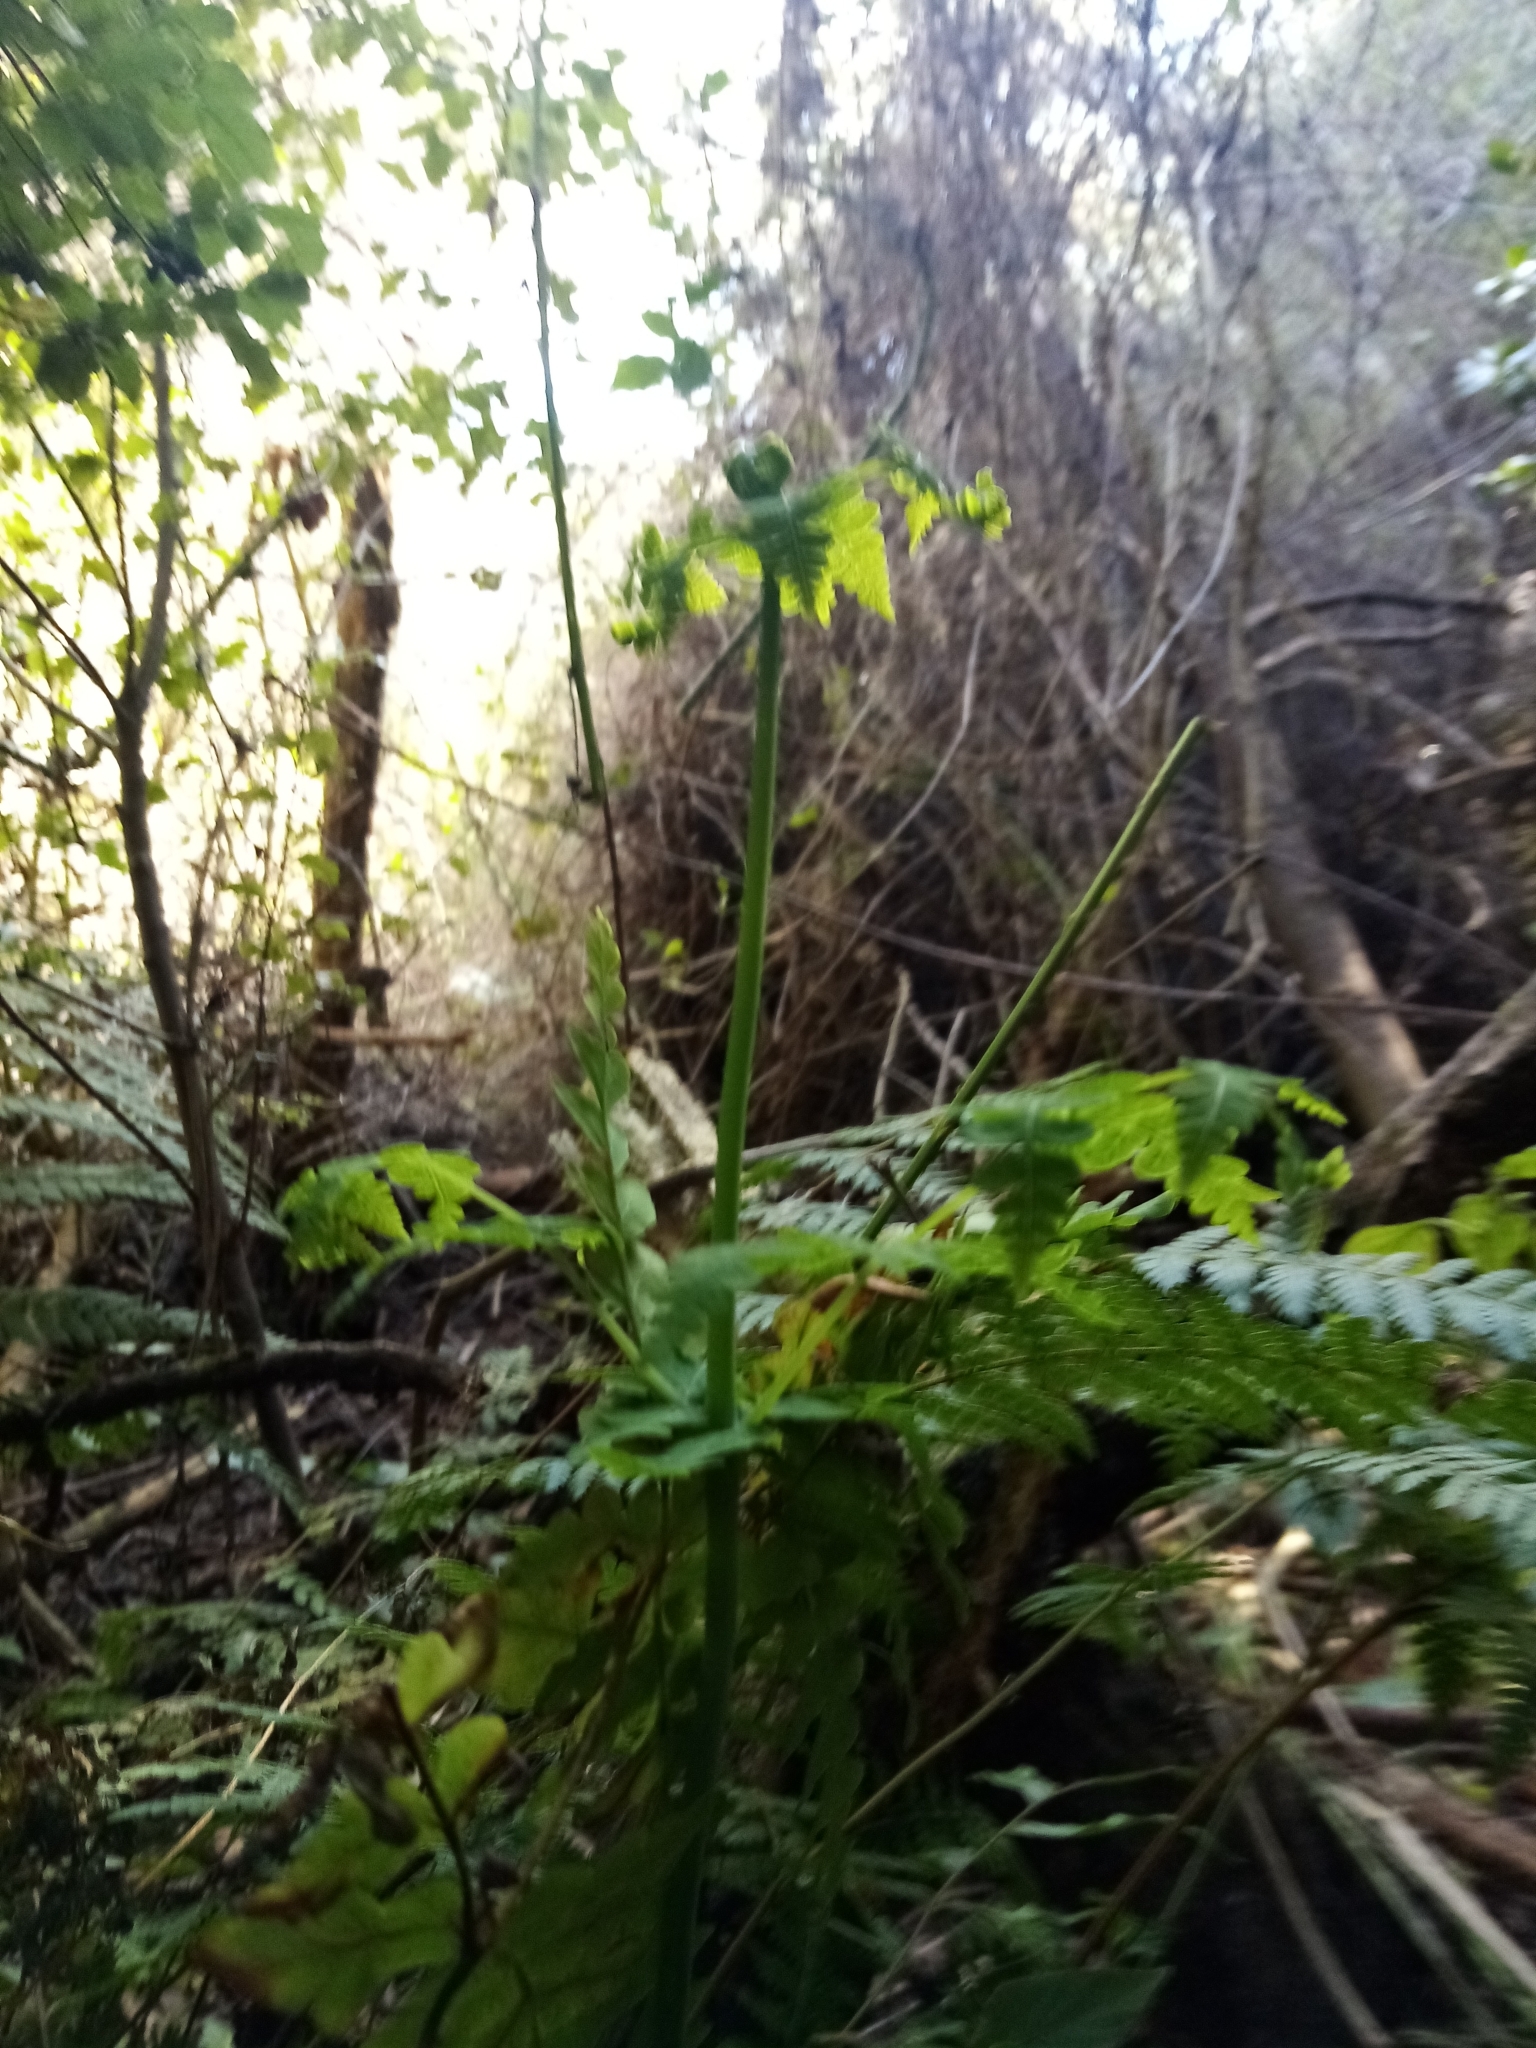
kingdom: Plantae
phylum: Tracheophyta
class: Polypodiopsida
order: Polypodiales
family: Dennstaedtiaceae
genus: Histiopteris
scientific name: Histiopteris incisa
